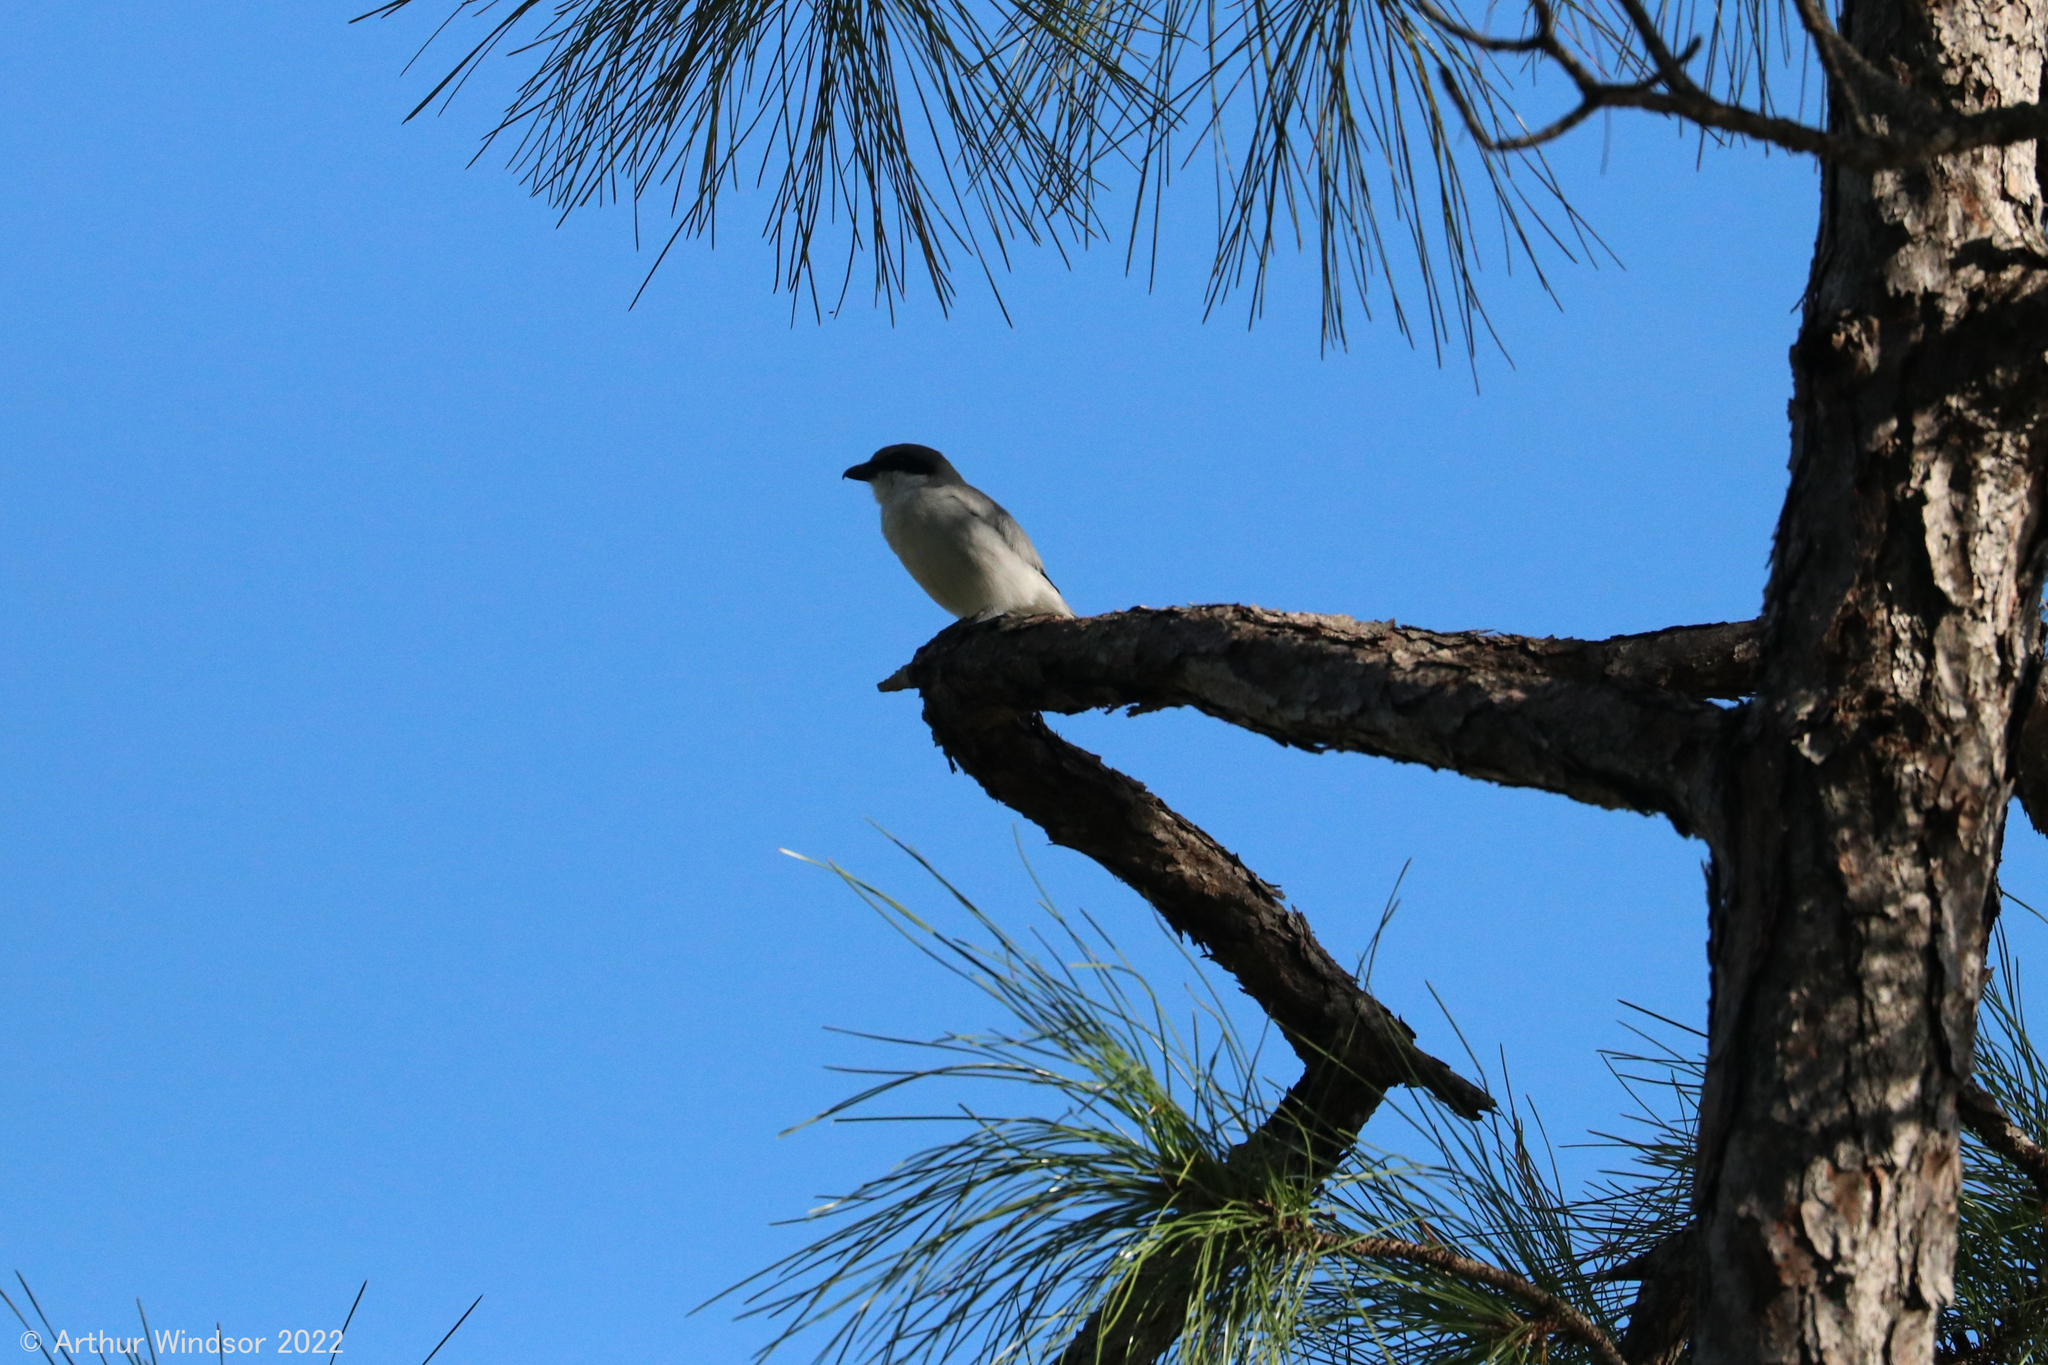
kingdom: Animalia
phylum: Chordata
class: Aves
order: Passeriformes
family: Laniidae
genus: Lanius
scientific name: Lanius ludovicianus
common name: Loggerhead shrike
